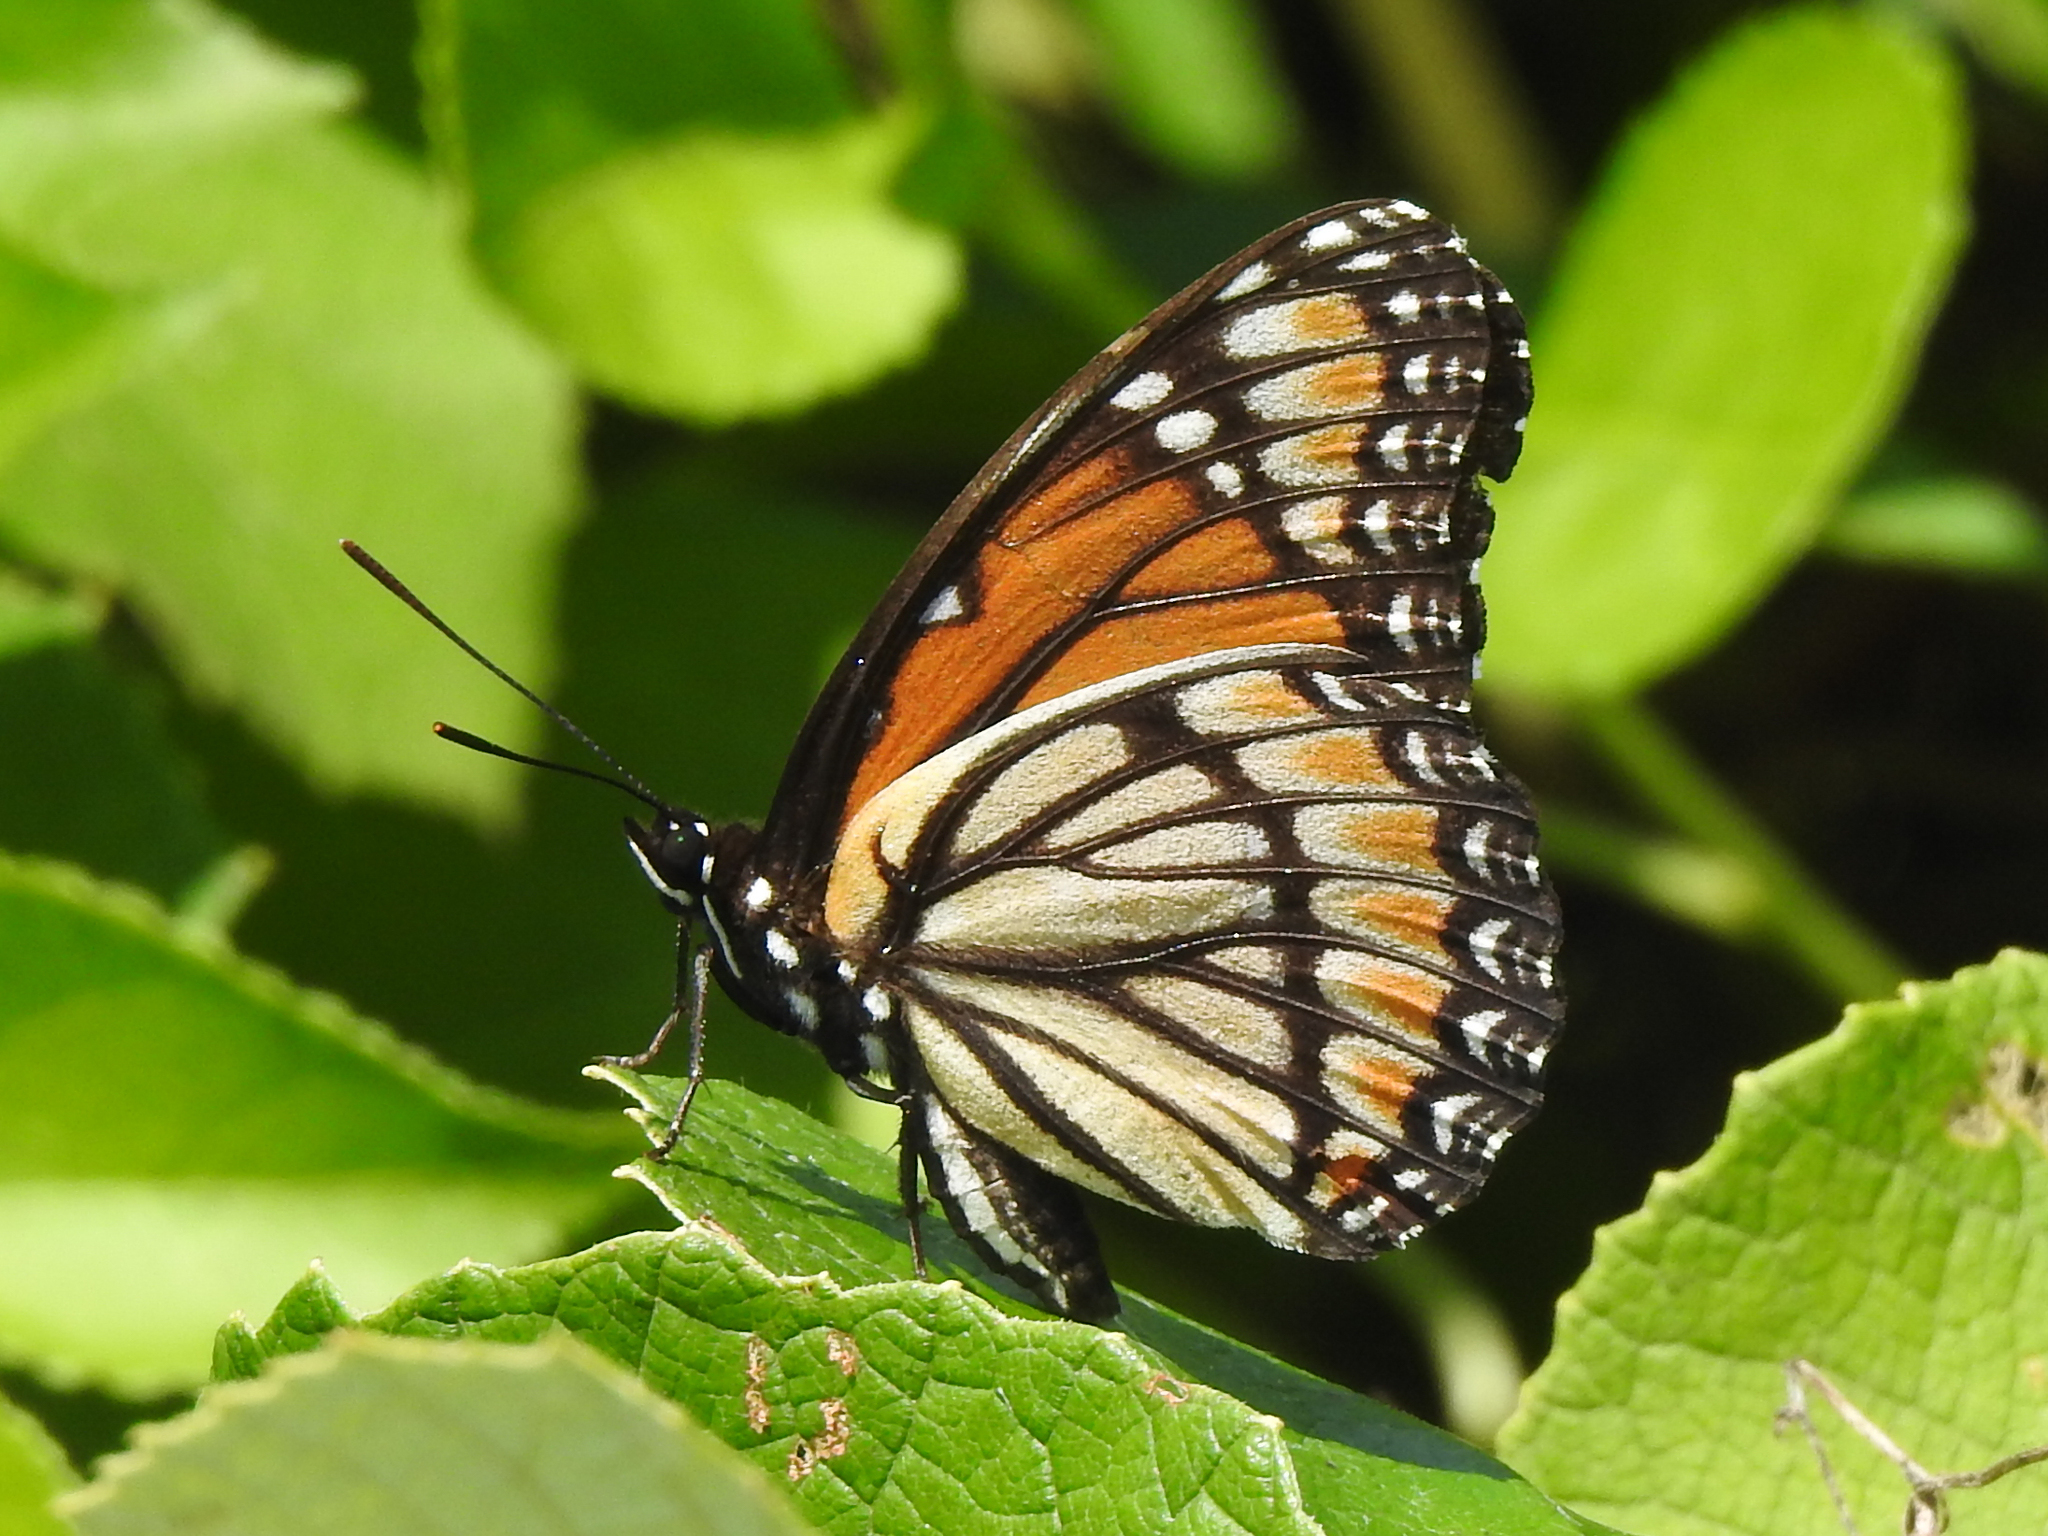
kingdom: Animalia
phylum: Arthropoda
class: Insecta
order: Lepidoptera
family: Nymphalidae
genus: Limenitis
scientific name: Limenitis archippus
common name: Viceroy
